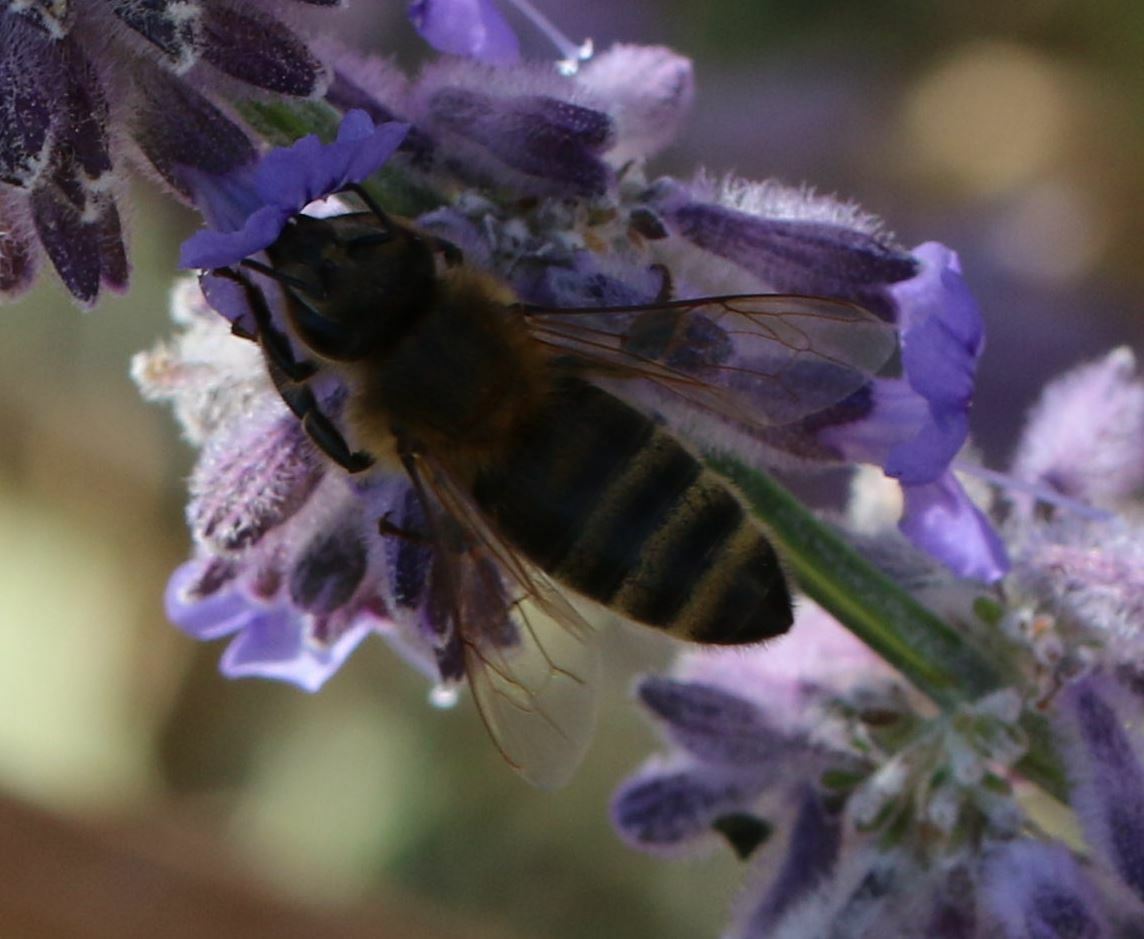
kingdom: Animalia
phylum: Arthropoda
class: Insecta
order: Hymenoptera
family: Apidae
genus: Apis
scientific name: Apis mellifera
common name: Honey bee
